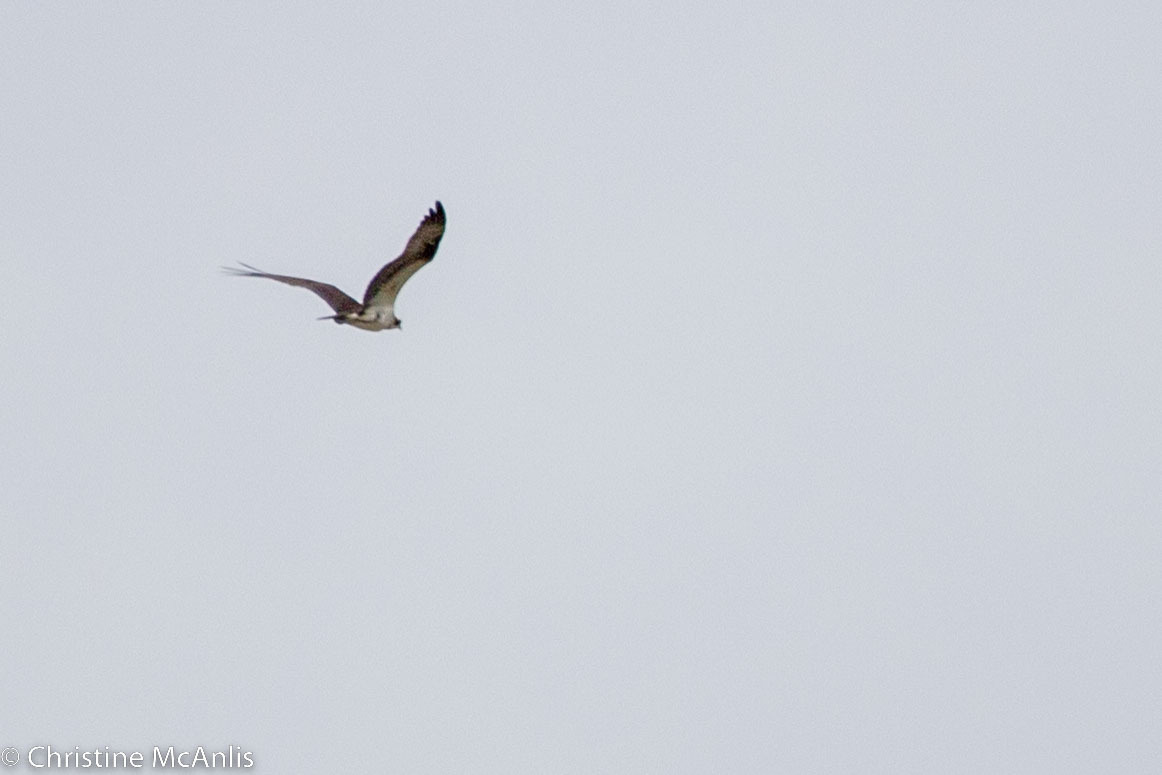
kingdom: Animalia
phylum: Chordata
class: Aves
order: Accipitriformes
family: Pandionidae
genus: Pandion
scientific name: Pandion haliaetus
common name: Osprey
